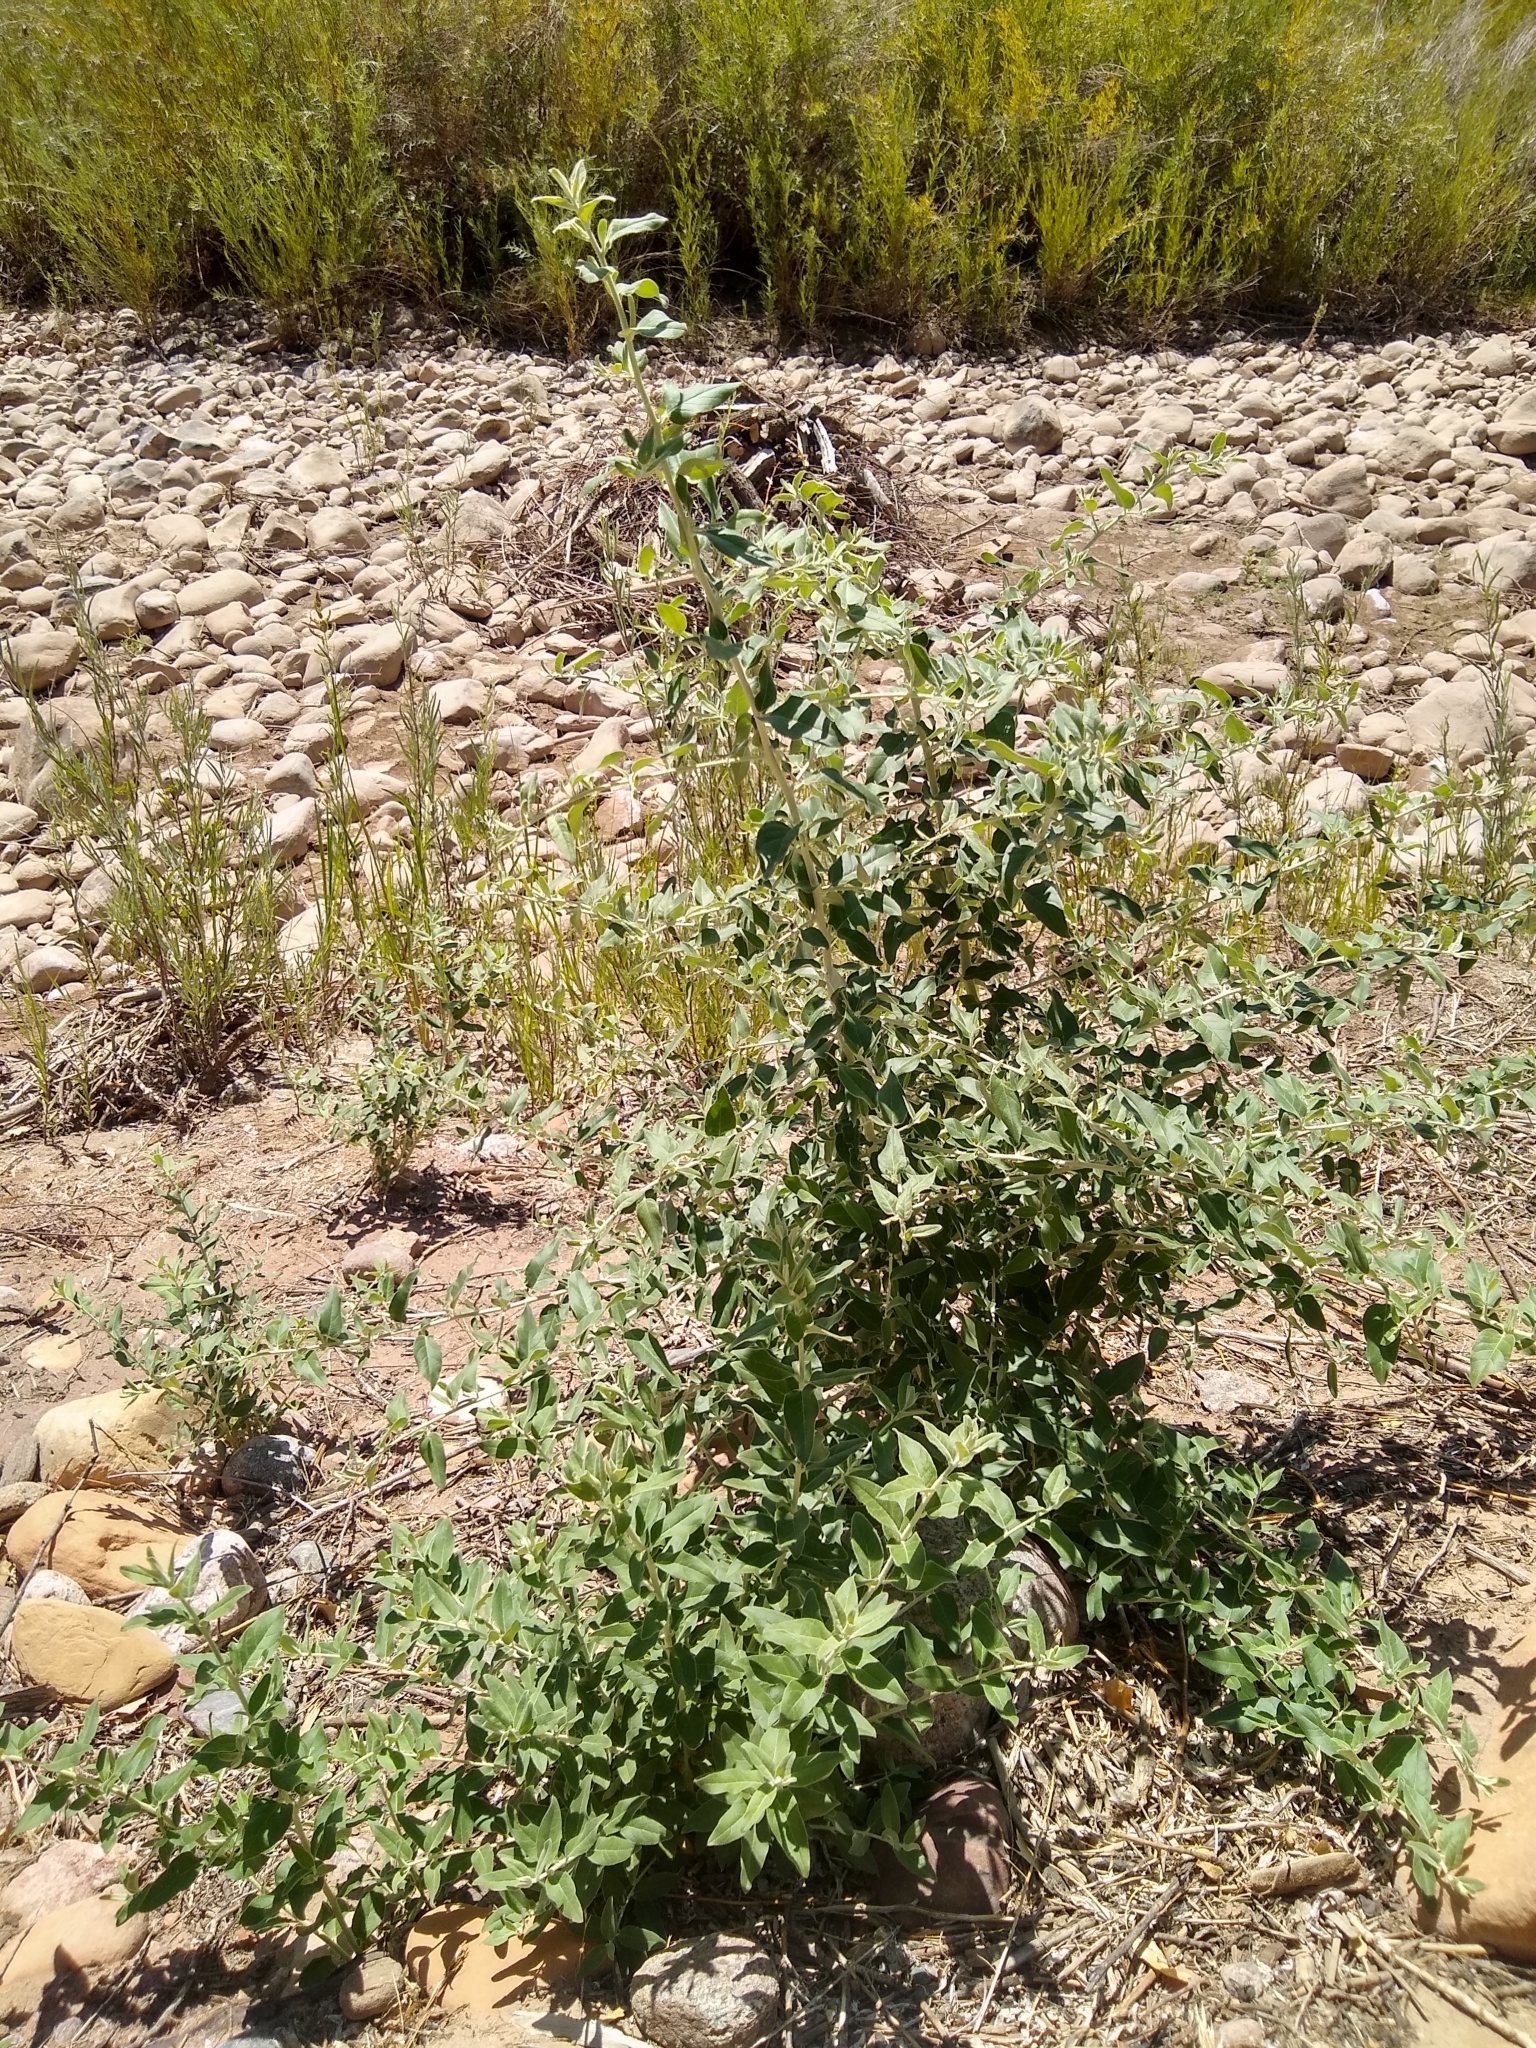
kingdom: Plantae
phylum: Tracheophyta
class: Magnoliopsida
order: Rosales
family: Elaeagnaceae
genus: Elaeagnus
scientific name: Elaeagnus angustifolia
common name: Russian olive
